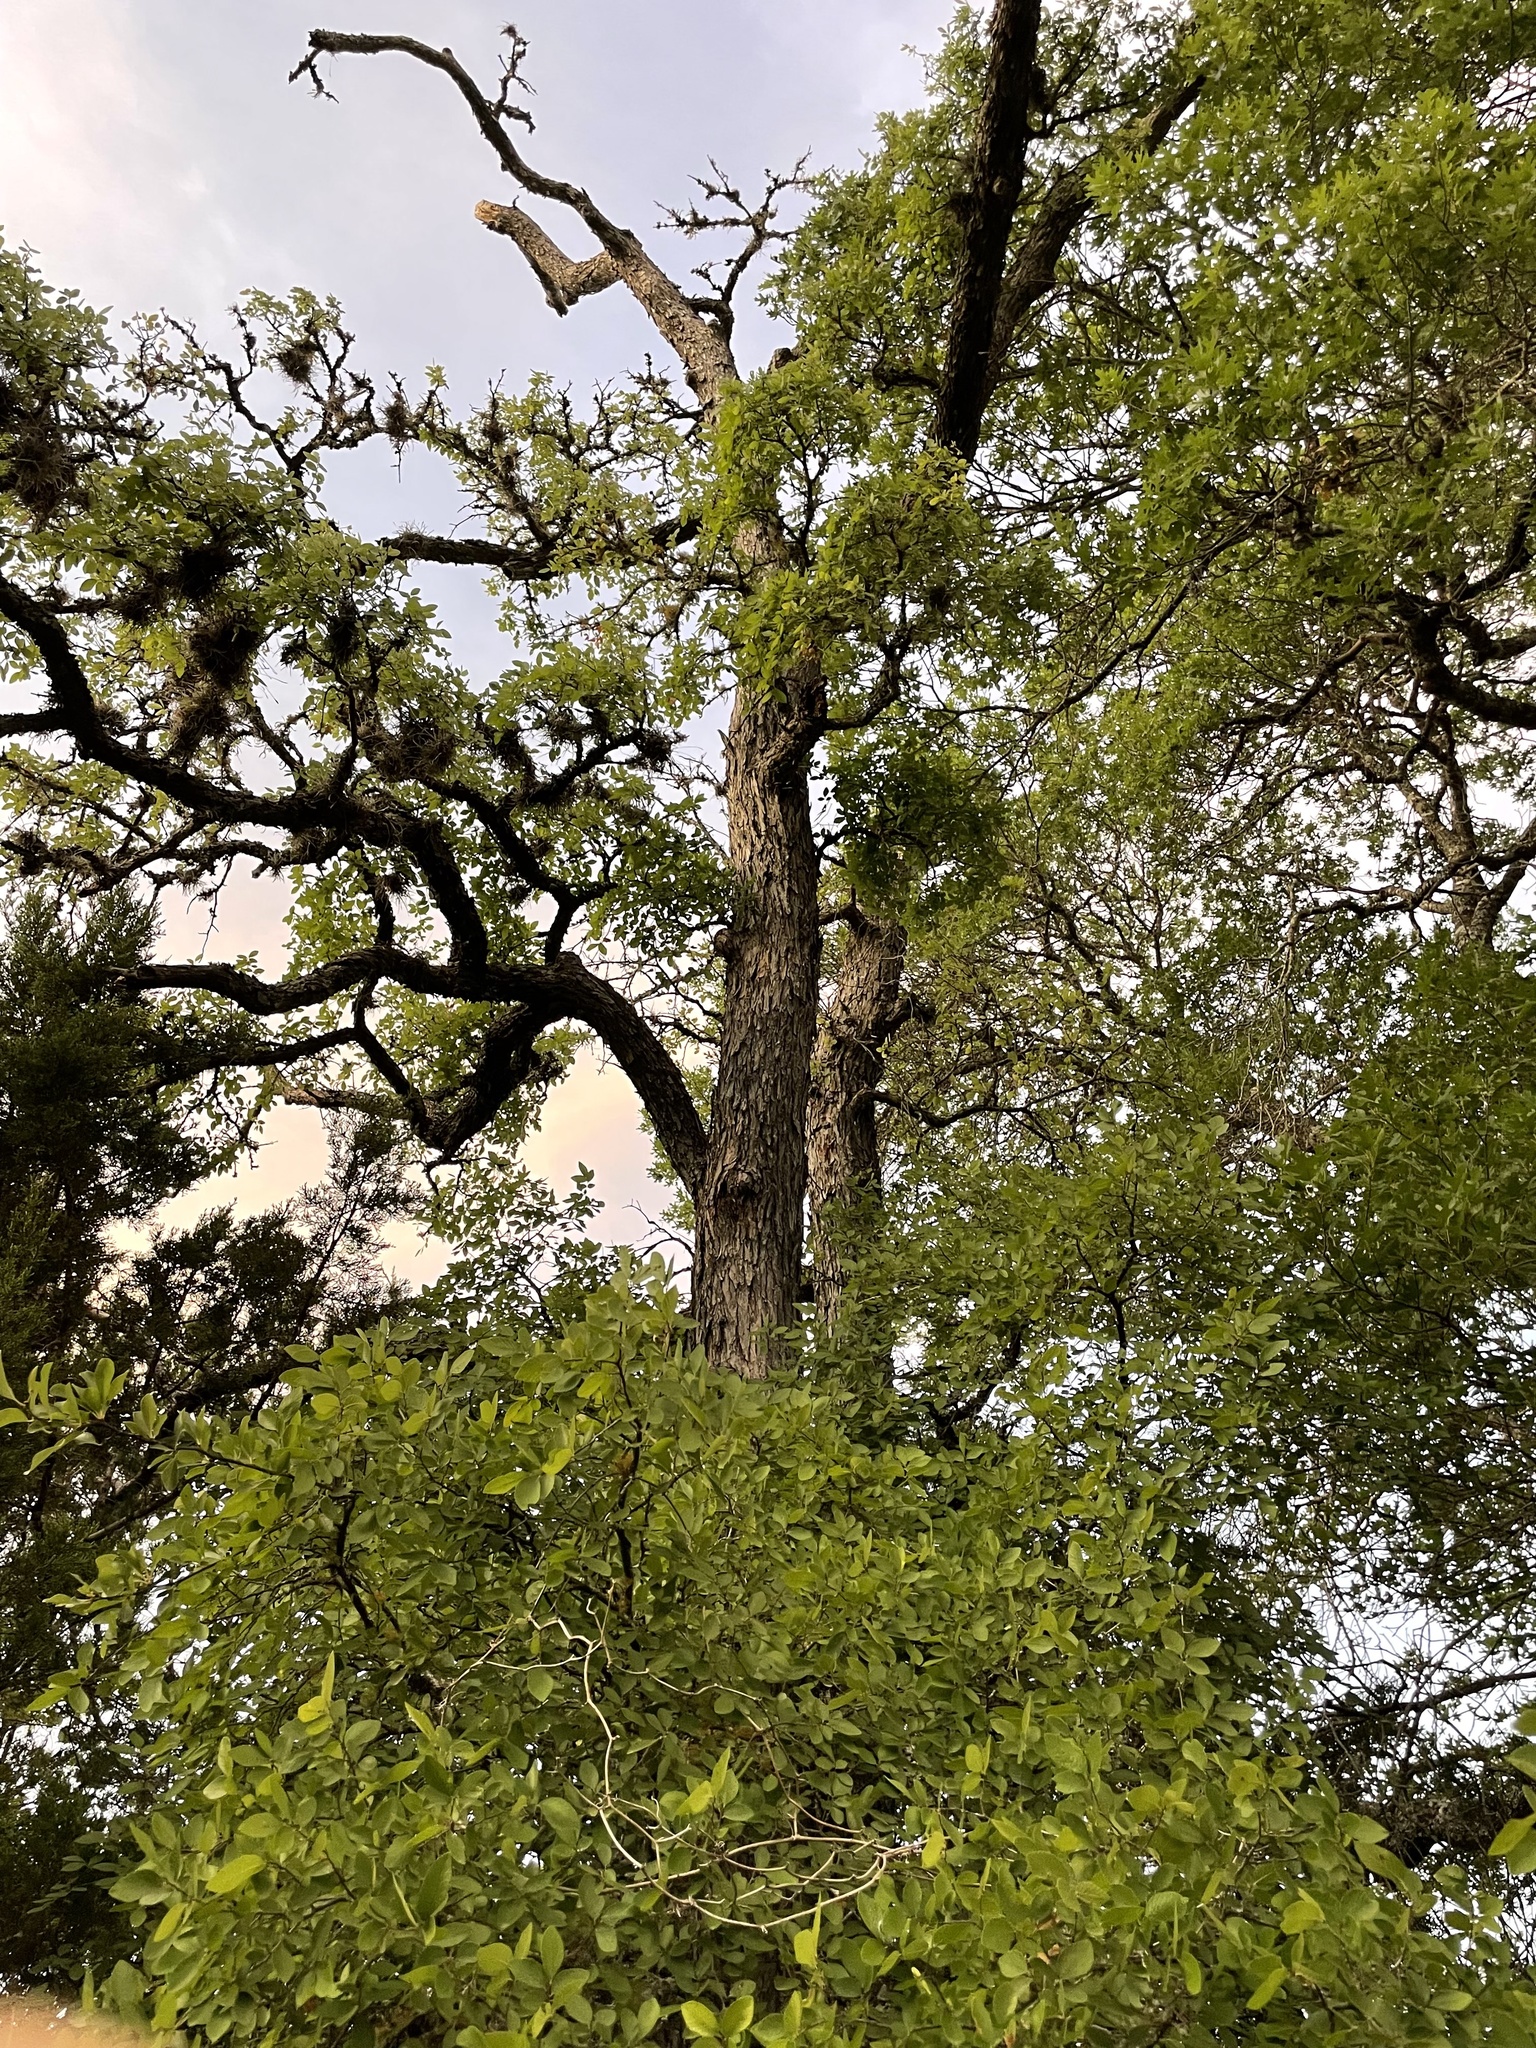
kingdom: Plantae
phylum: Tracheophyta
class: Magnoliopsida
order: Rosales
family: Ulmaceae
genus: Ulmus
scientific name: Ulmus crassifolia
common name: Basket elm
